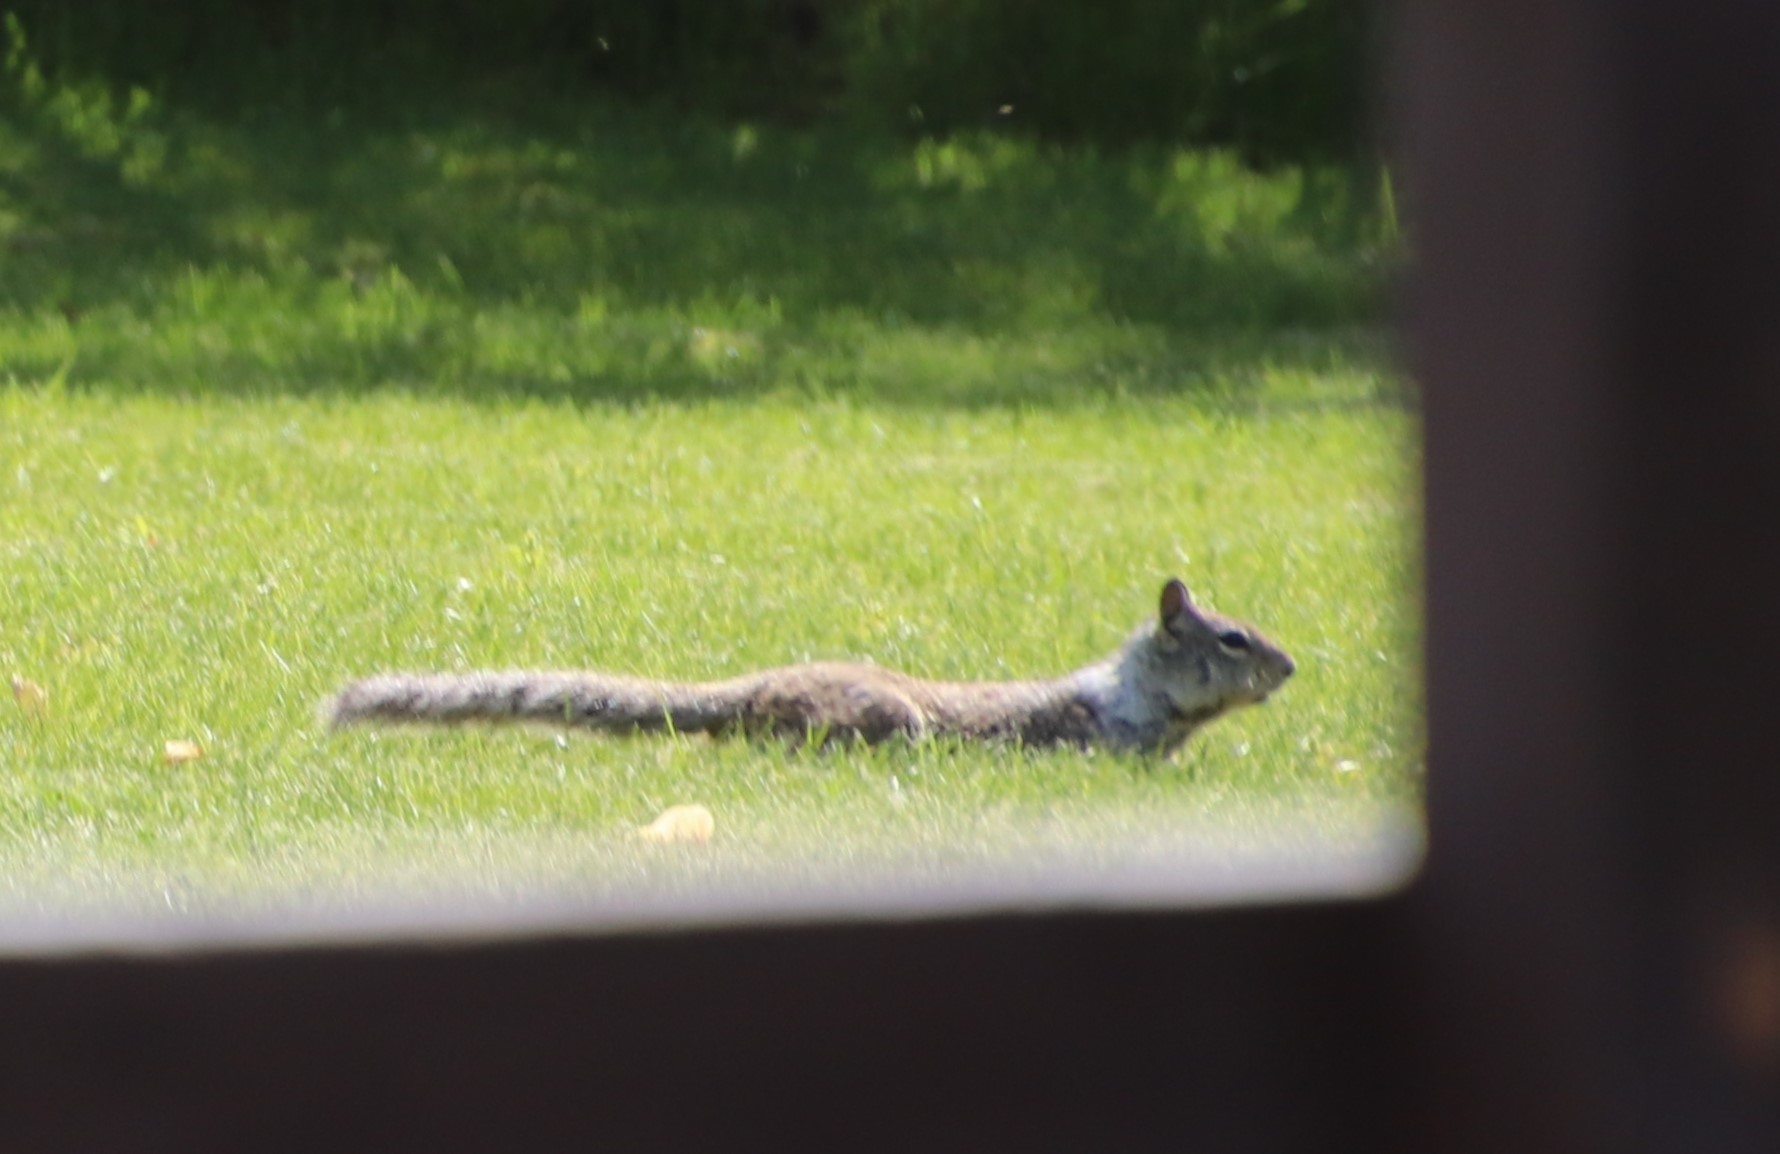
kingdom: Animalia
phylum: Chordata
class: Mammalia
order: Rodentia
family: Sciuridae
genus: Otospermophilus
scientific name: Otospermophilus beecheyi
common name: California ground squirrel
